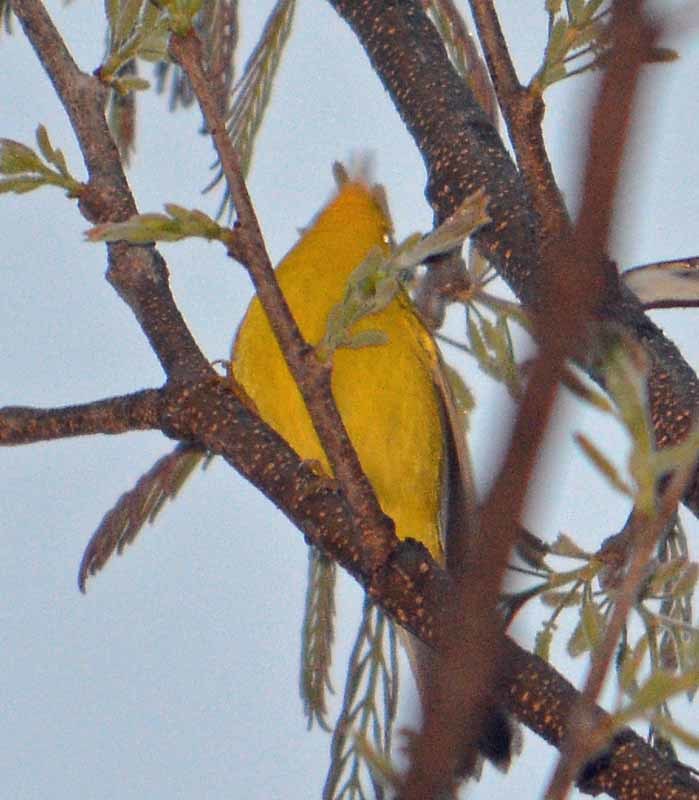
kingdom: Animalia
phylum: Chordata
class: Aves
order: Passeriformes
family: Parulidae
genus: Cardellina
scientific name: Cardellina pusilla
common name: Wilson's warbler
